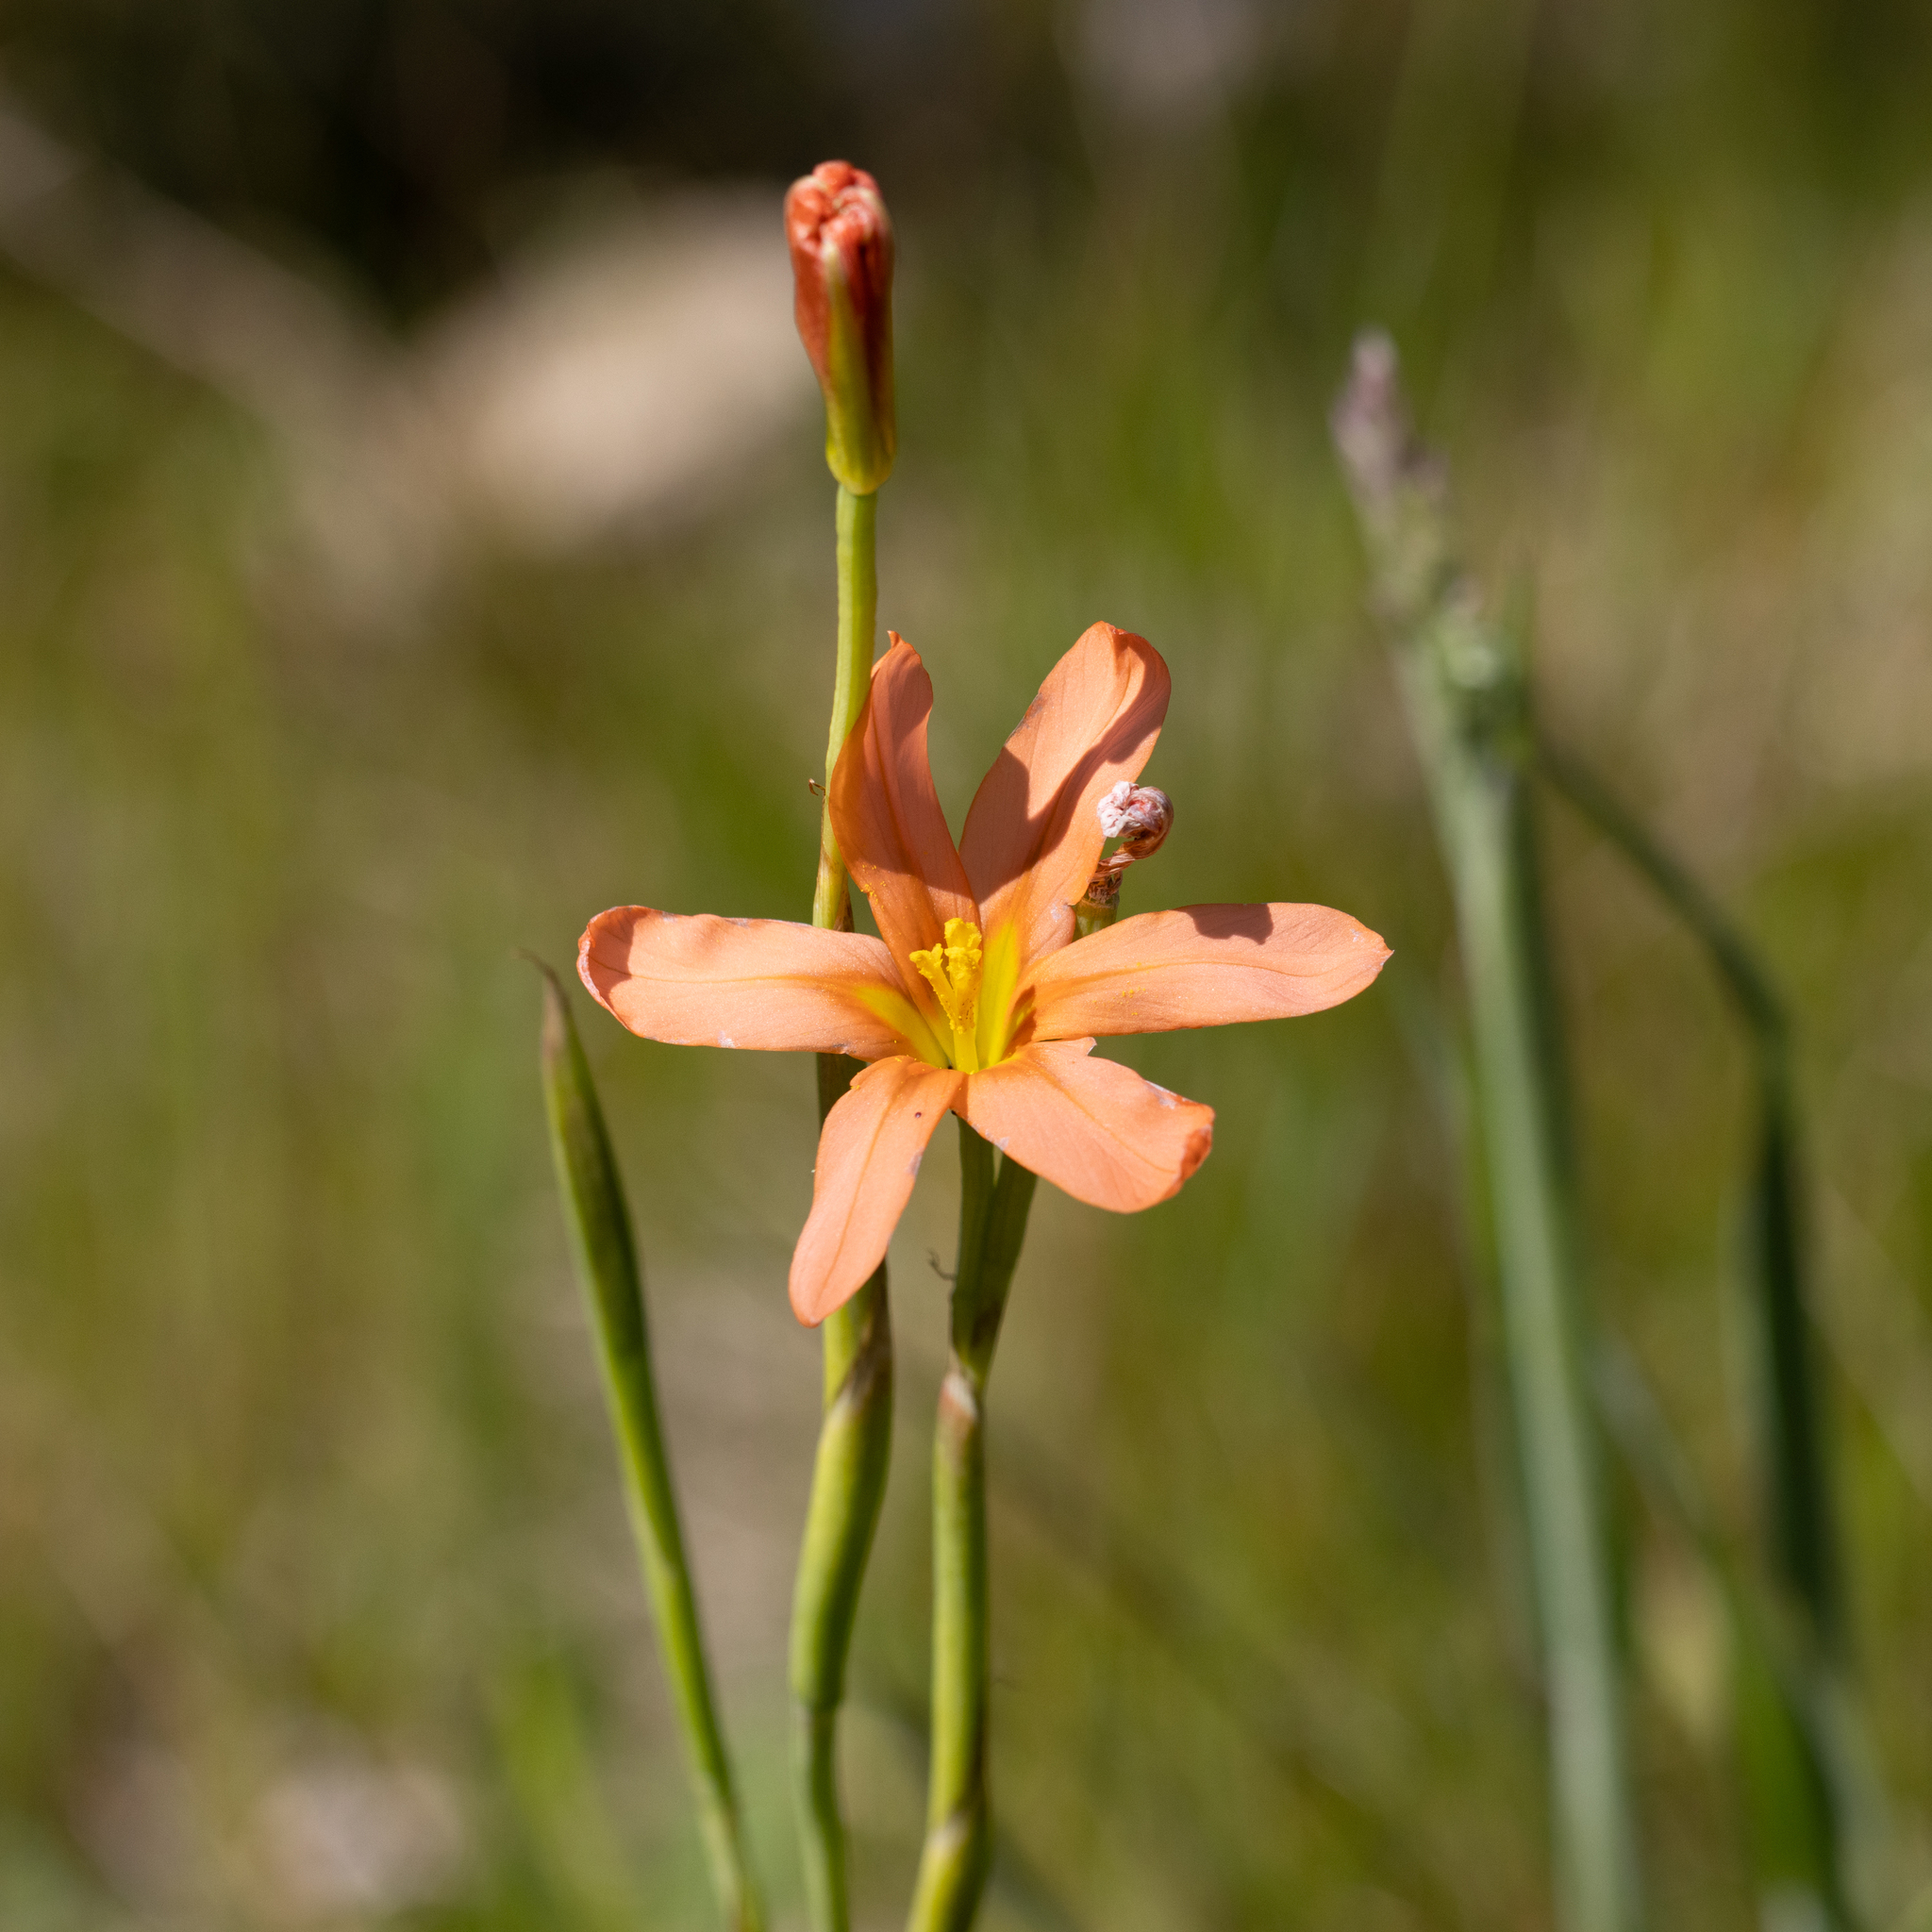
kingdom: Plantae
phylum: Tracheophyta
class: Liliopsida
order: Asparagales
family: Iridaceae
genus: Moraea
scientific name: Moraea flaccida
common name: One-leaf cape-tulip
